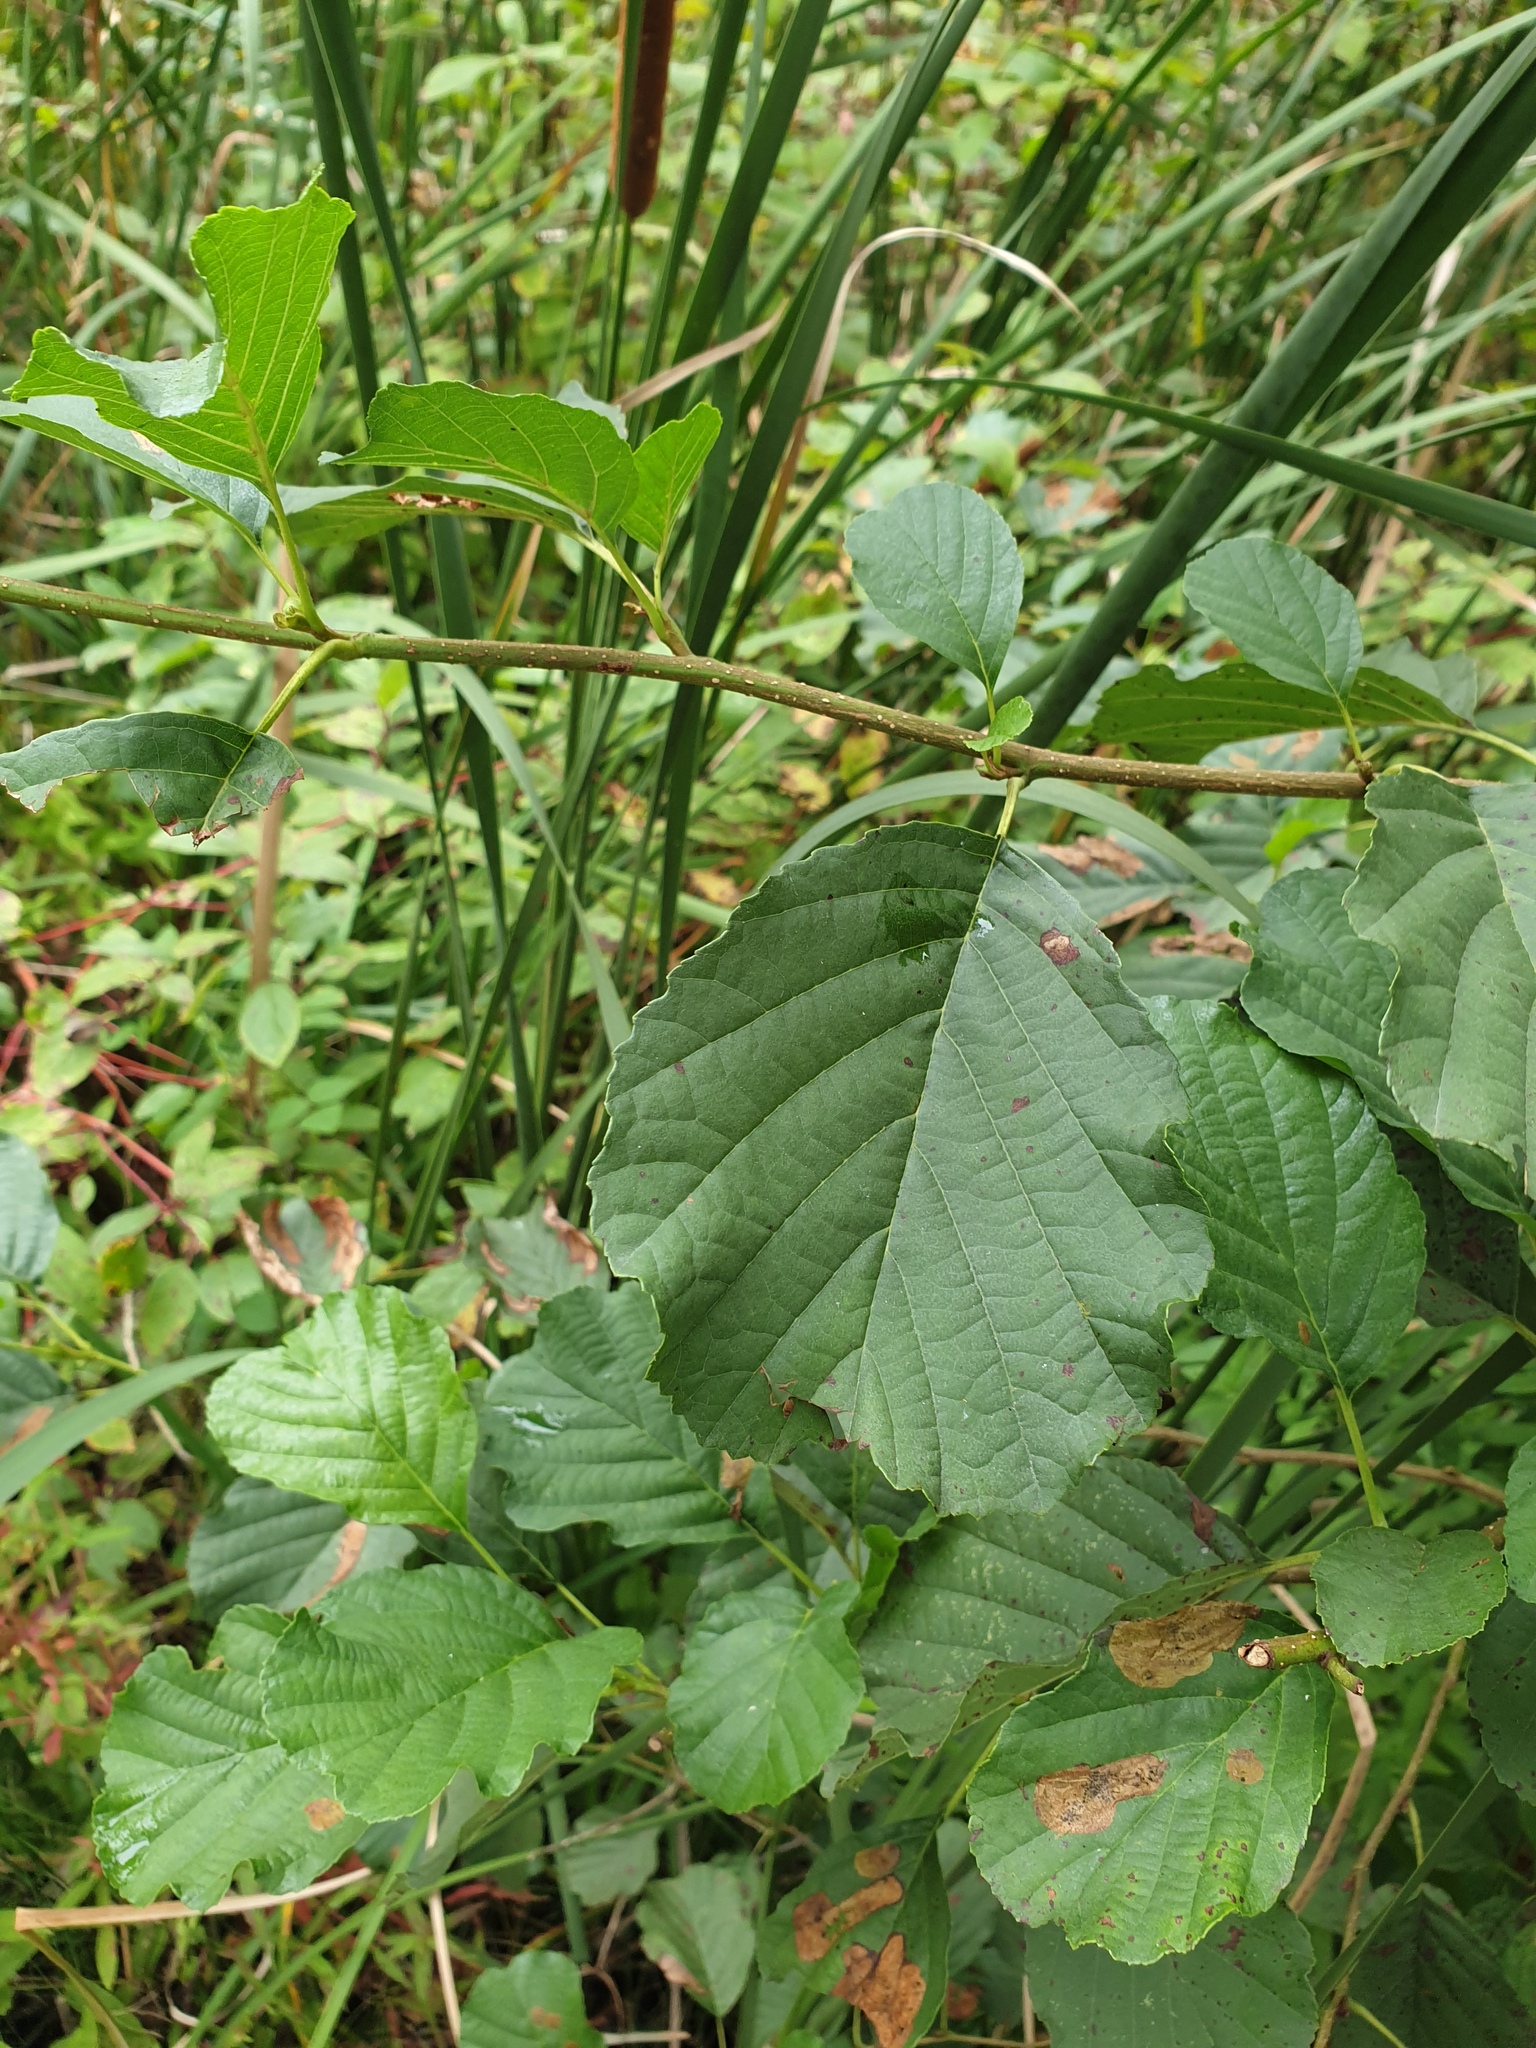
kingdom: Plantae
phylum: Tracheophyta
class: Magnoliopsida
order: Fagales
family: Betulaceae
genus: Alnus
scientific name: Alnus glutinosa
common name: Black alder
